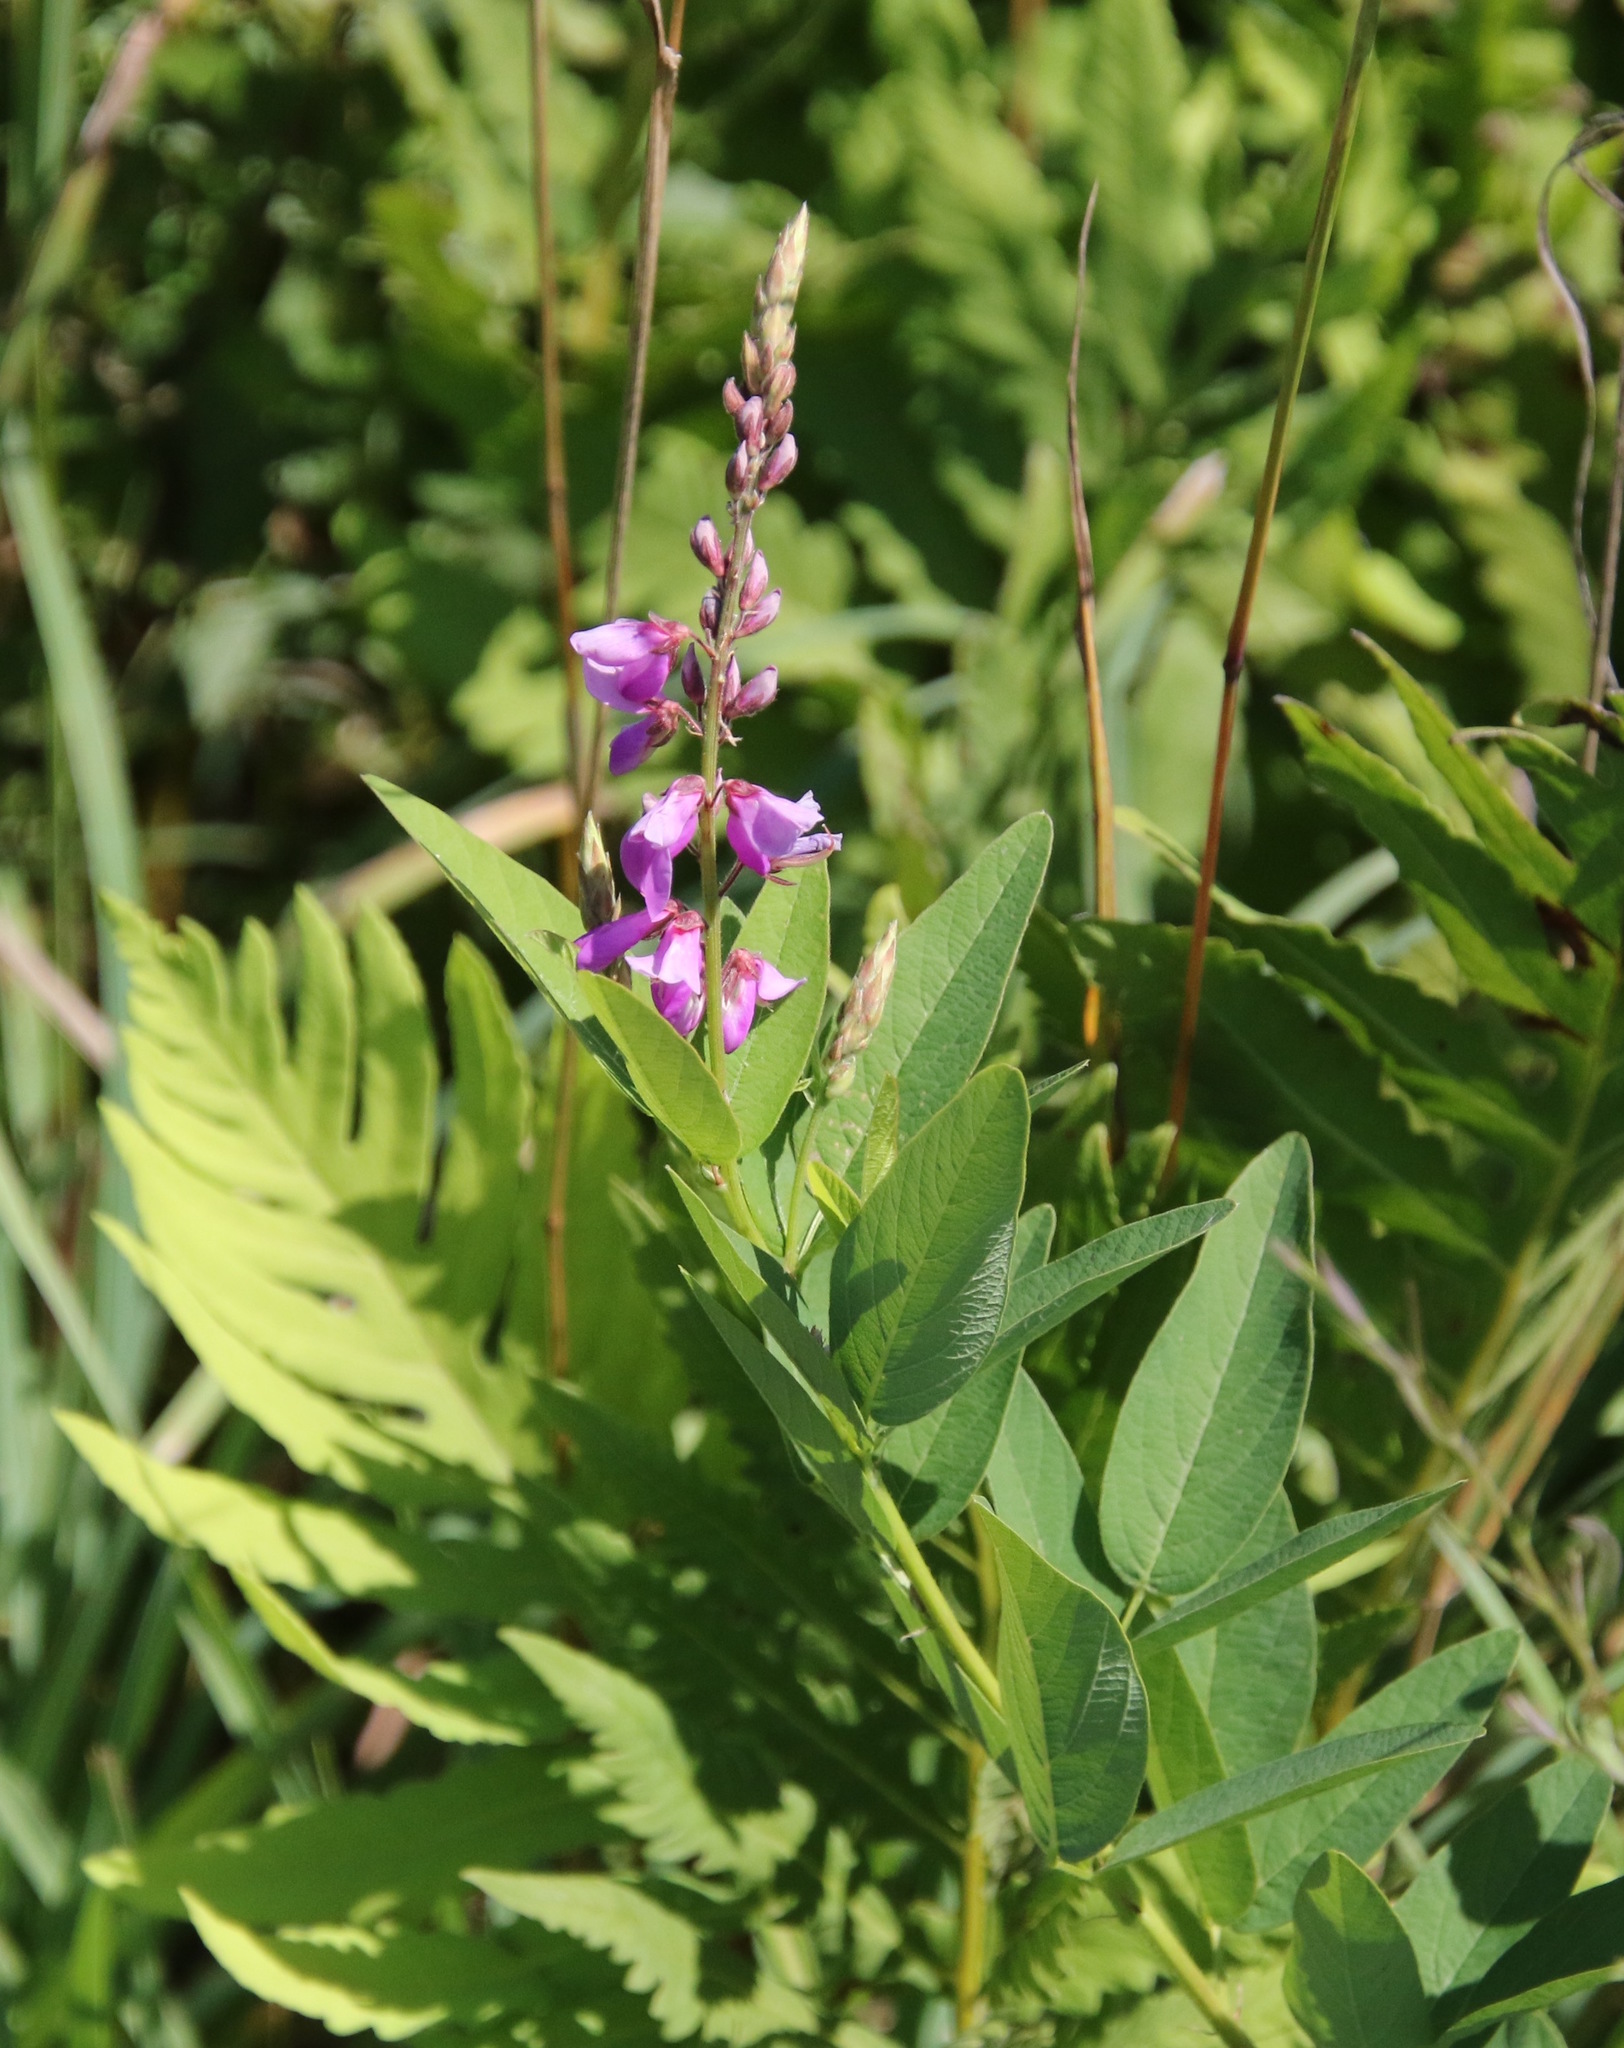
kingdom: Plantae
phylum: Tracheophyta
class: Magnoliopsida
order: Fabales
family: Fabaceae
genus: Desmodium
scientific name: Desmodium canadense
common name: Canada tick-trefoil
